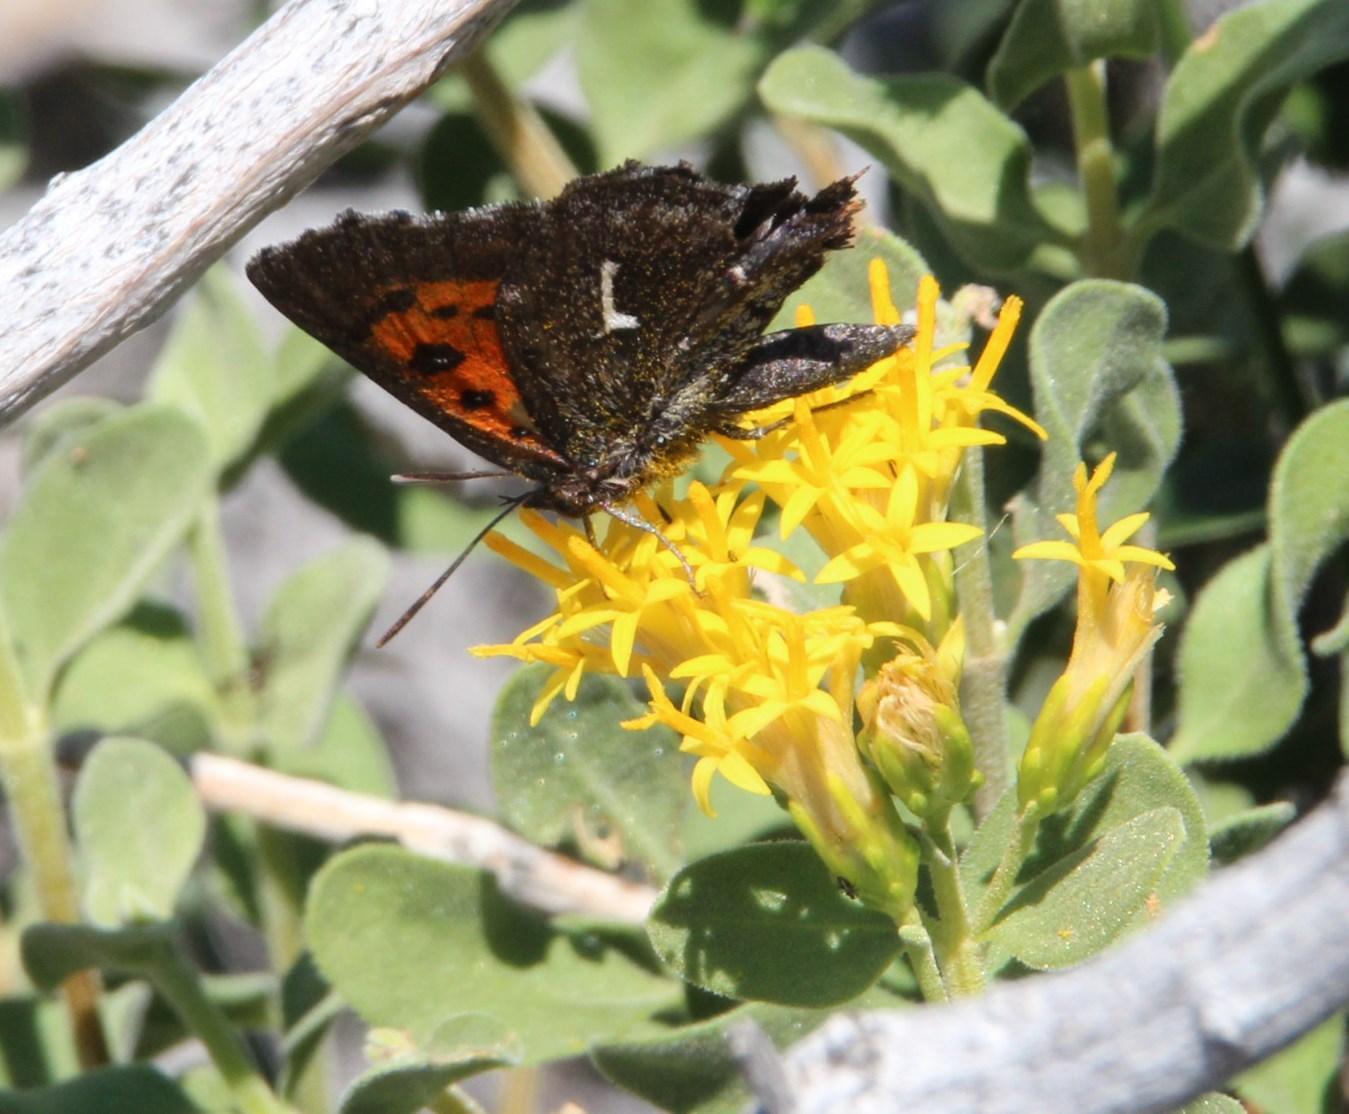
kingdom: Plantae
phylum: Tracheophyta
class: Magnoliopsida
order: Asterales
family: Asteraceae
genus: Pteronia
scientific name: Pteronia divaricata
